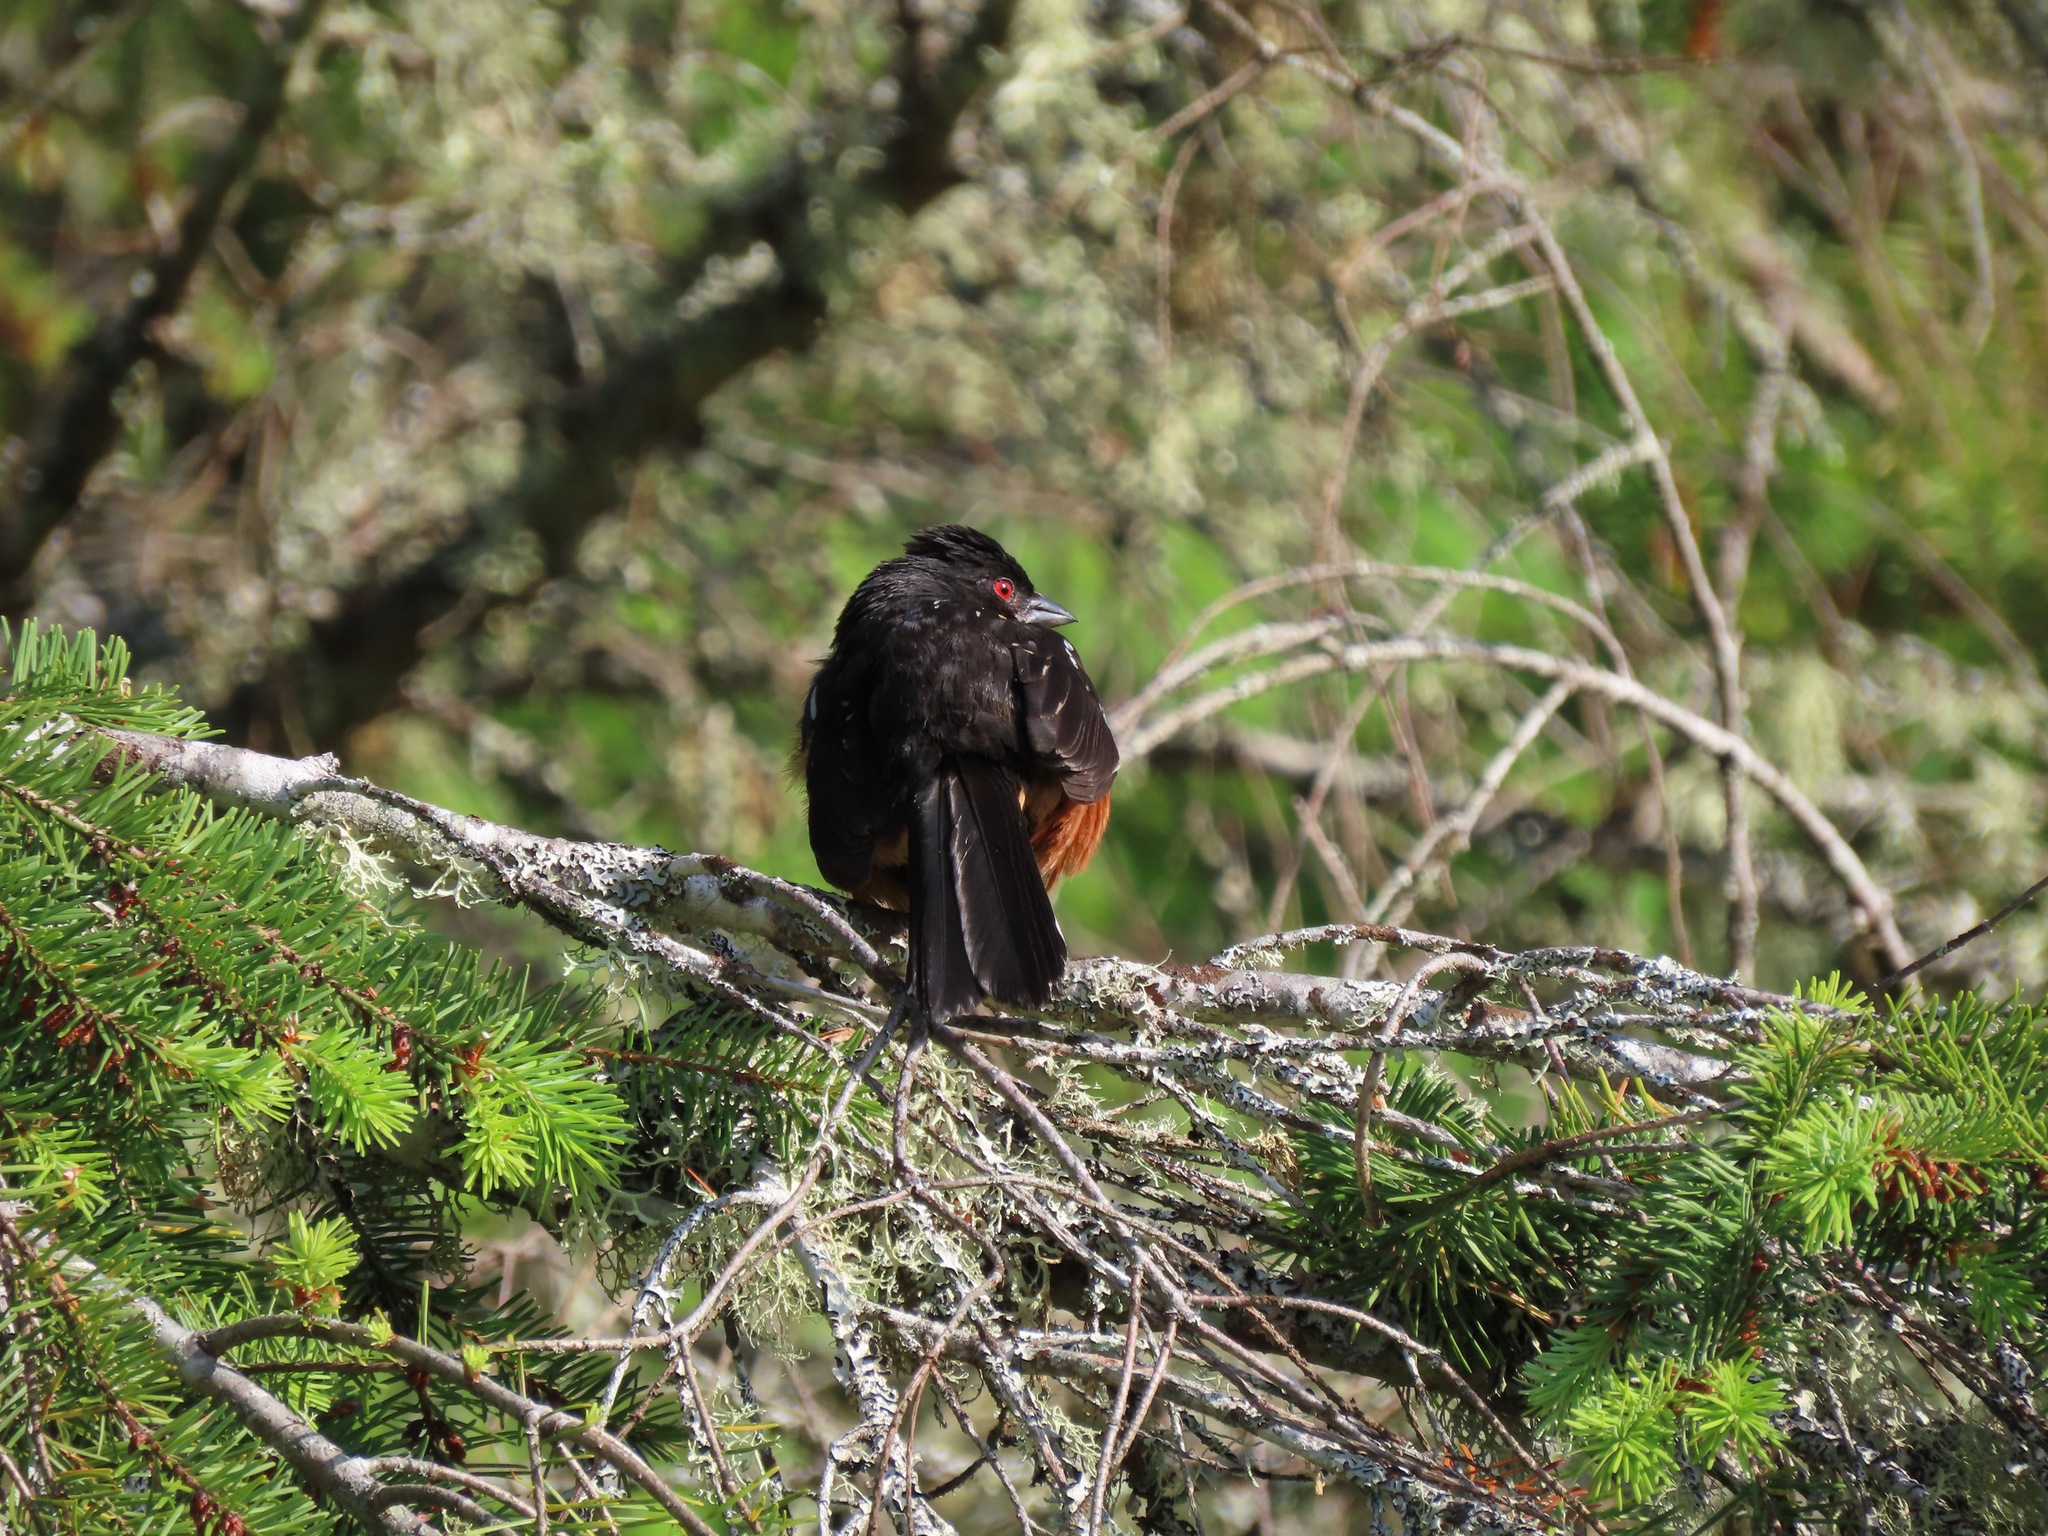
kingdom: Animalia
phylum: Chordata
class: Aves
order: Passeriformes
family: Passerellidae
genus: Pipilo
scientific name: Pipilo maculatus
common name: Spotted towhee
